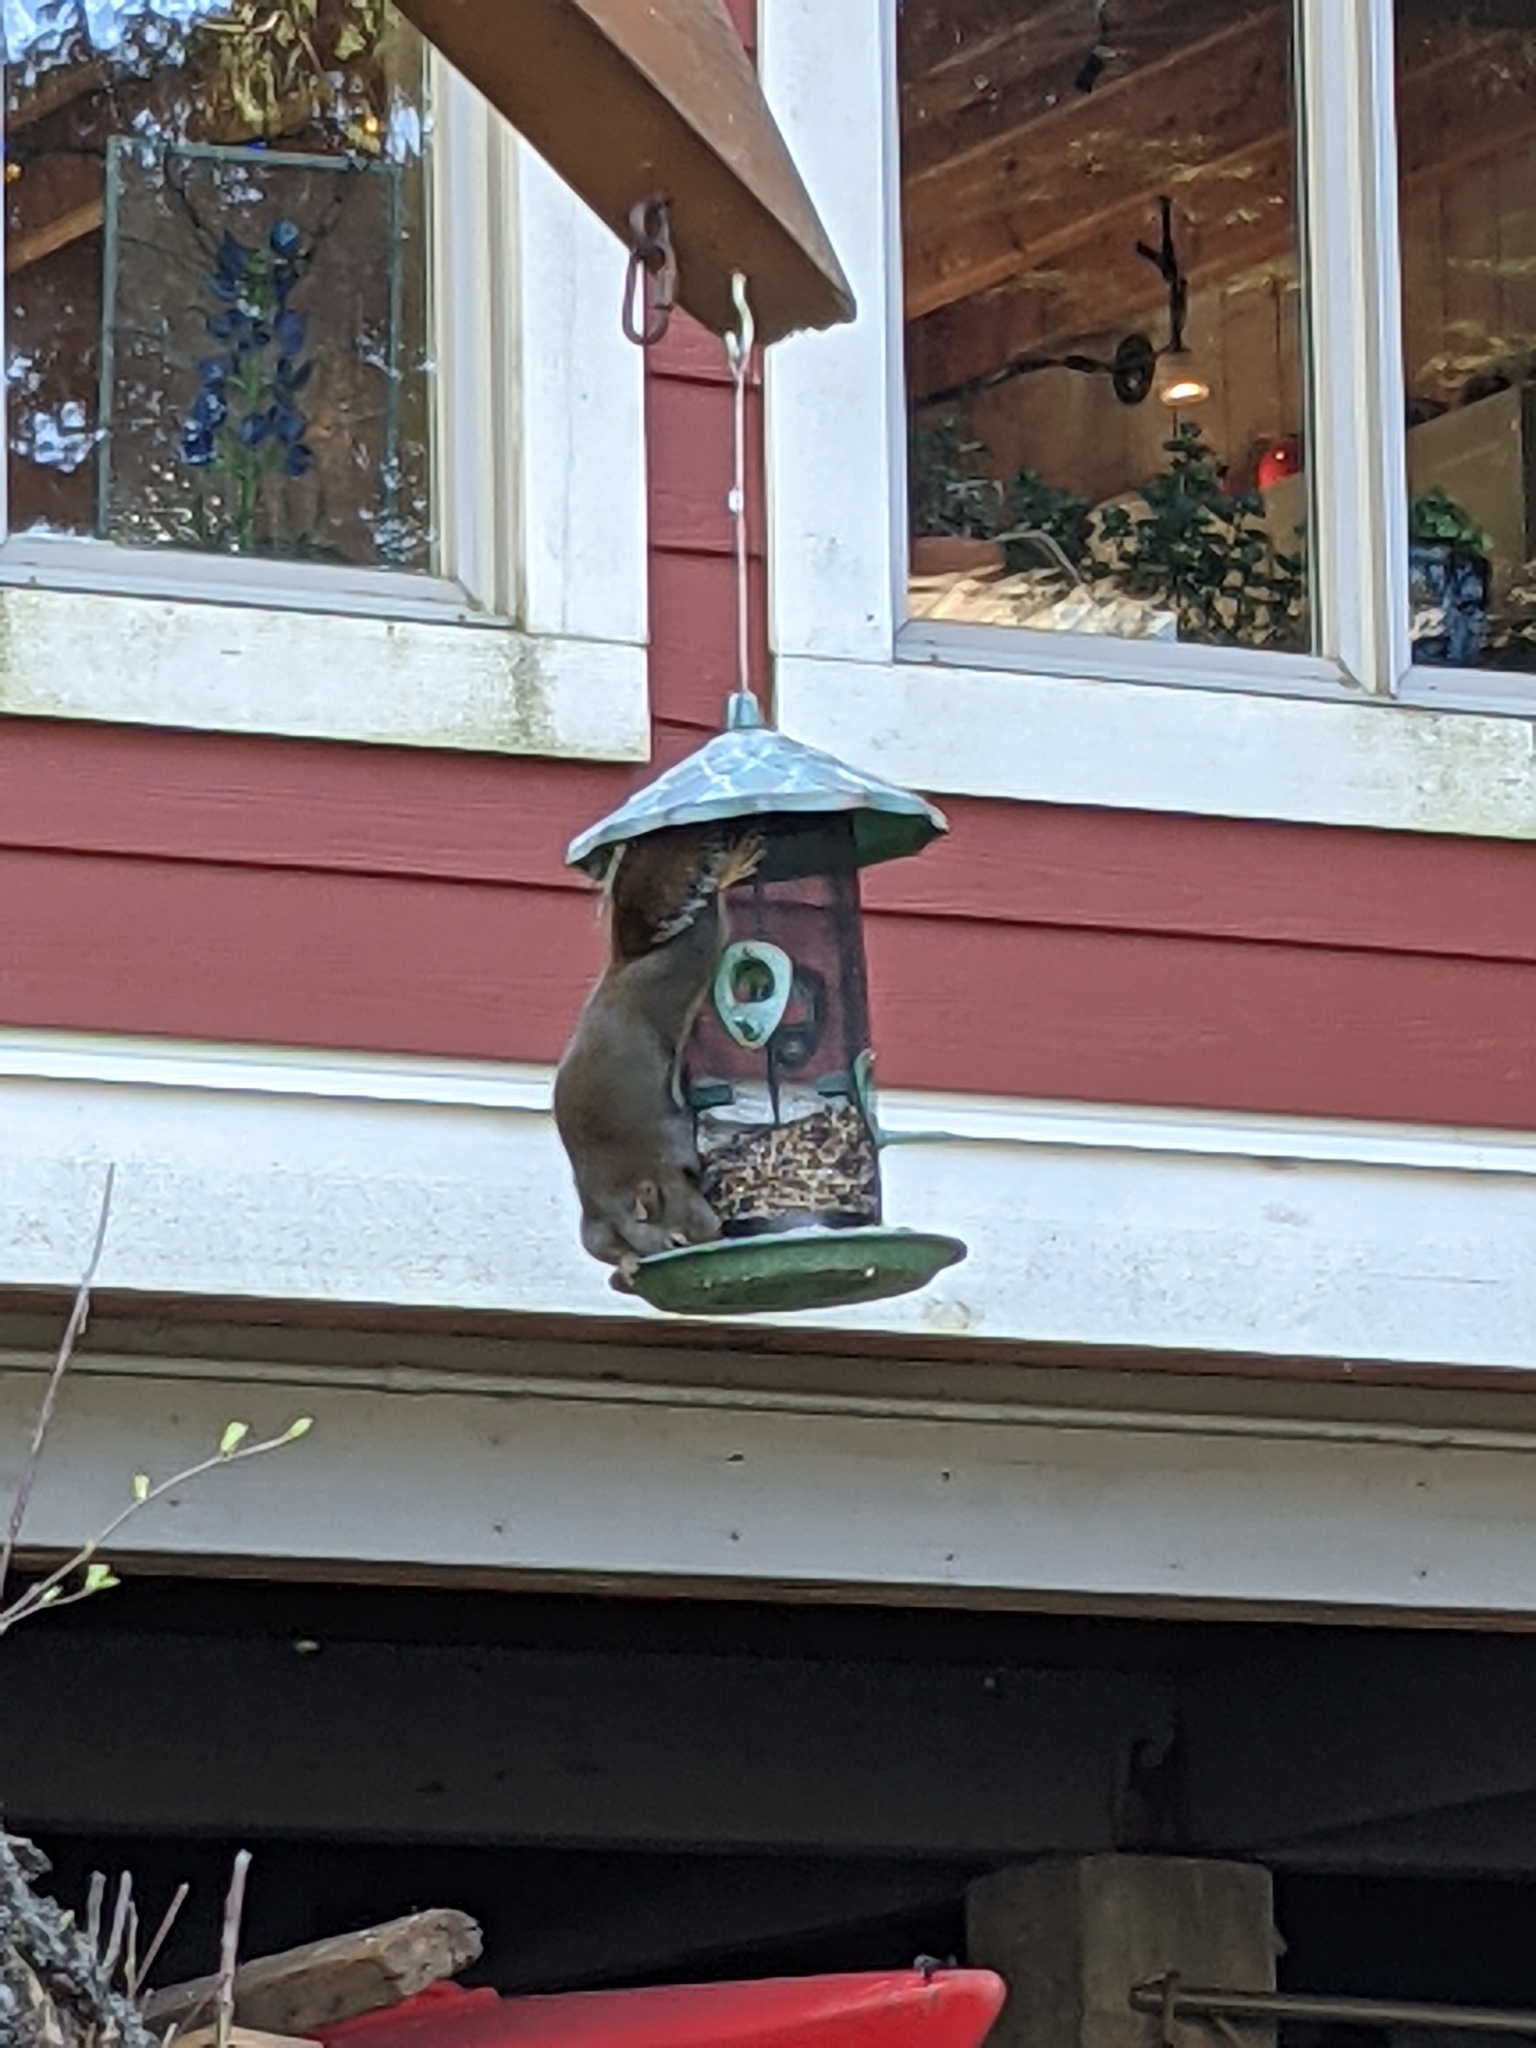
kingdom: Animalia
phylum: Chordata
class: Mammalia
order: Rodentia
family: Sciuridae
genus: Tamiasciurus
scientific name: Tamiasciurus douglasii
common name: Douglas's squirrel
